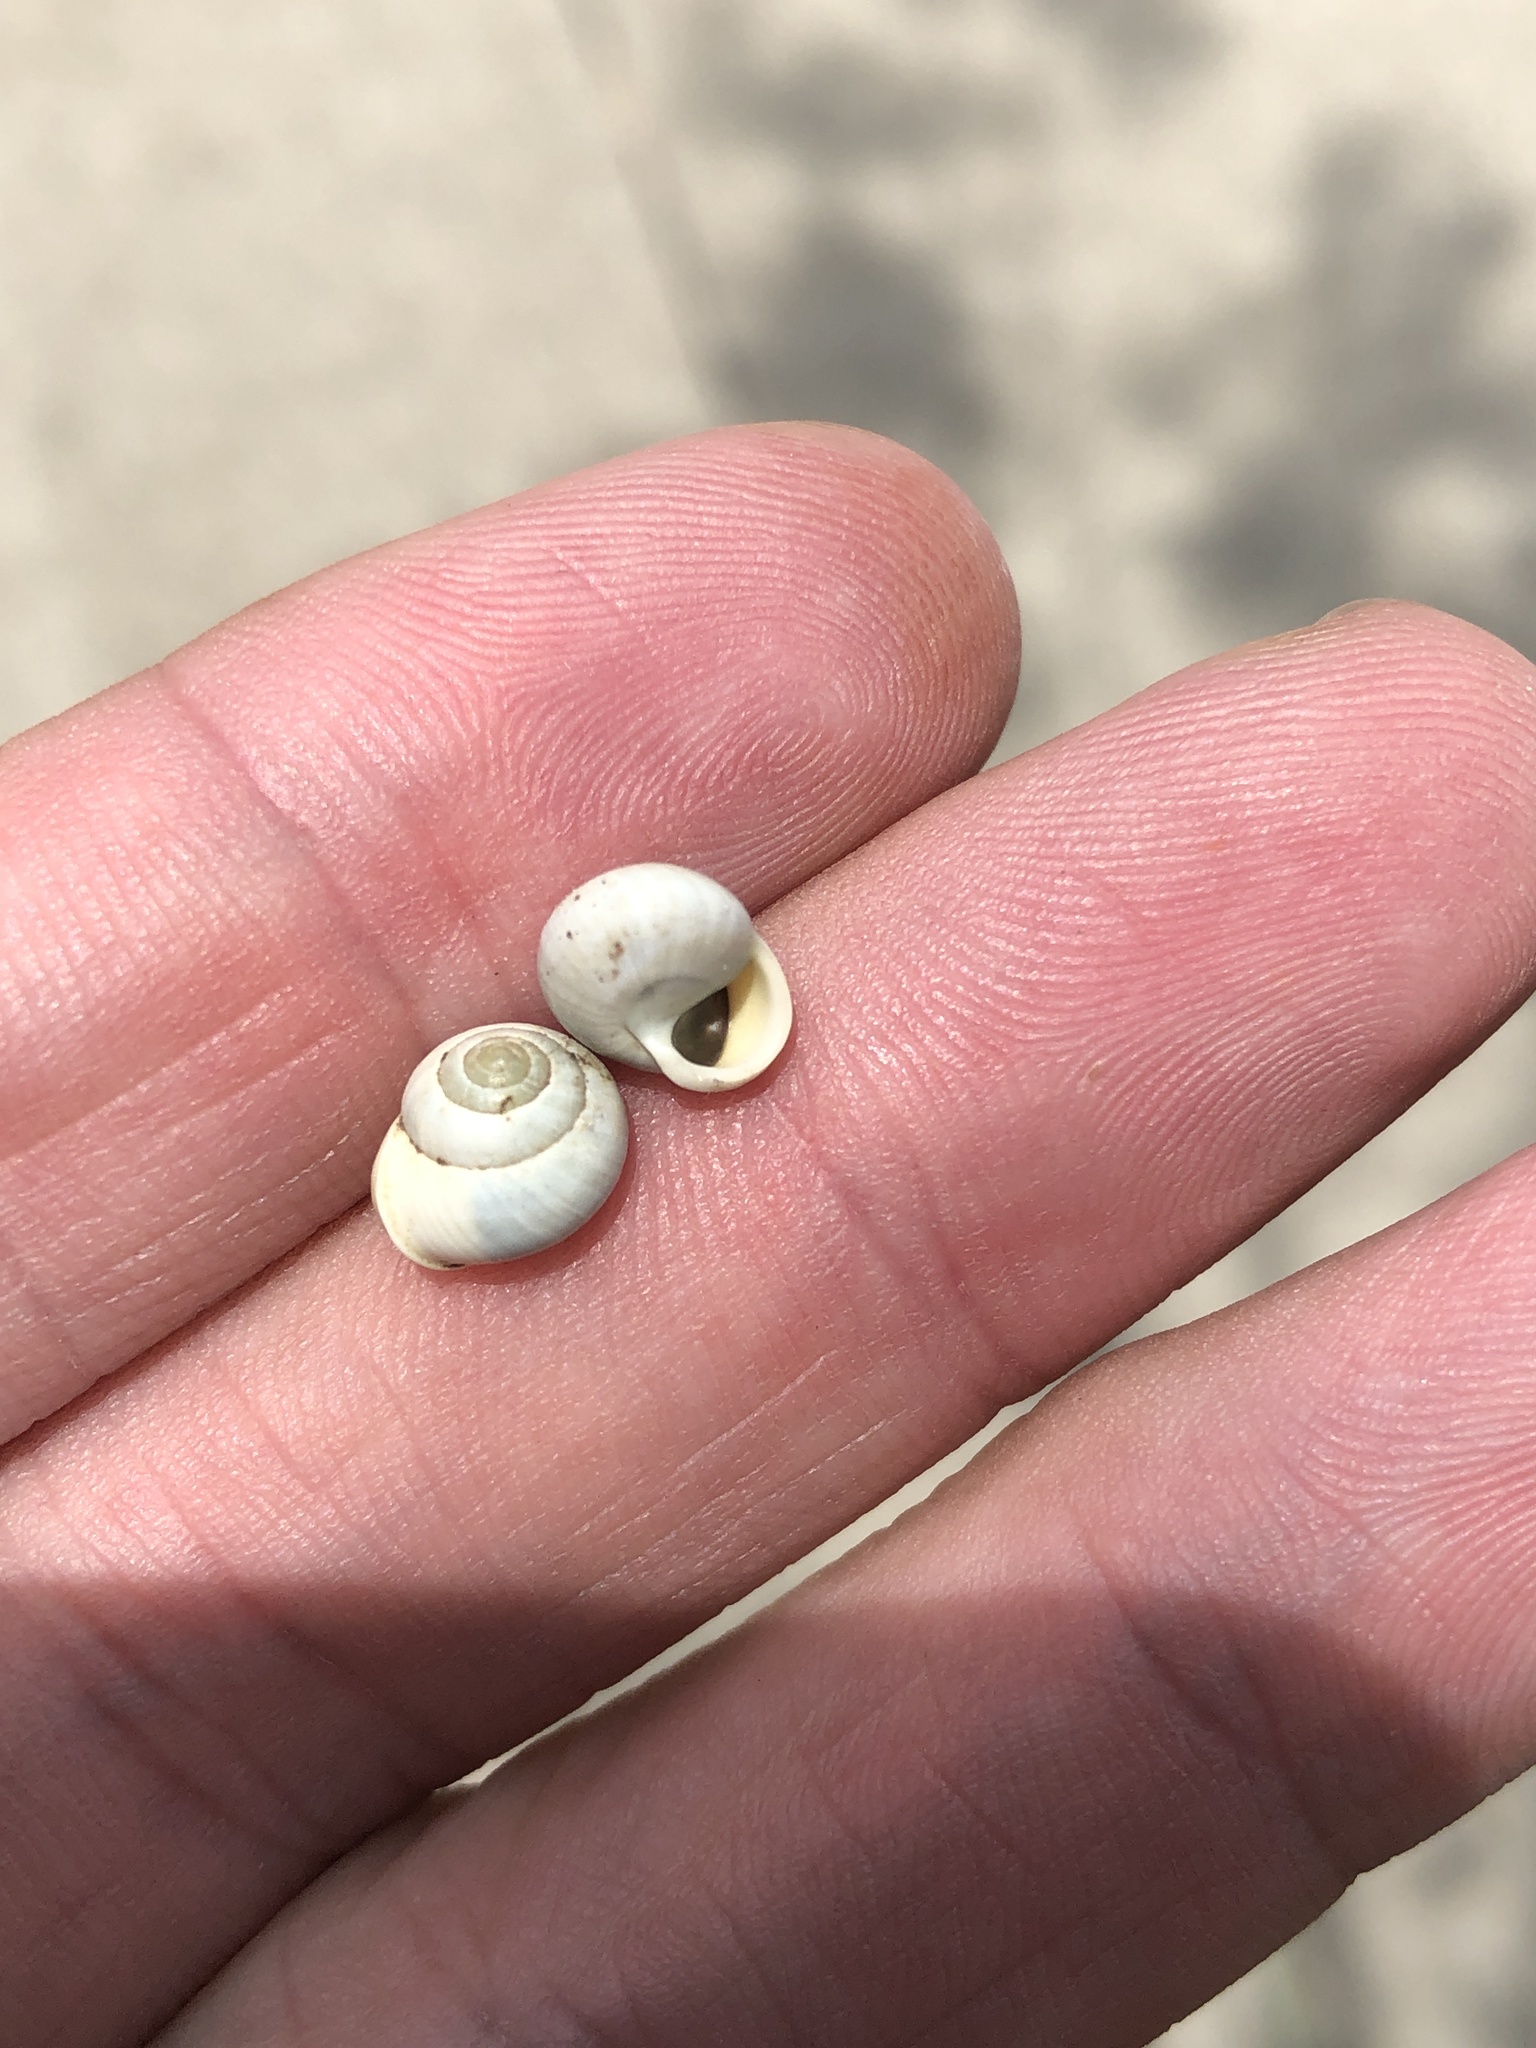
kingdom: Animalia
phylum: Mollusca
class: Gastropoda
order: Cycloneritida
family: Helicinidae
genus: Helicina
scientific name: Helicina orbiculata
